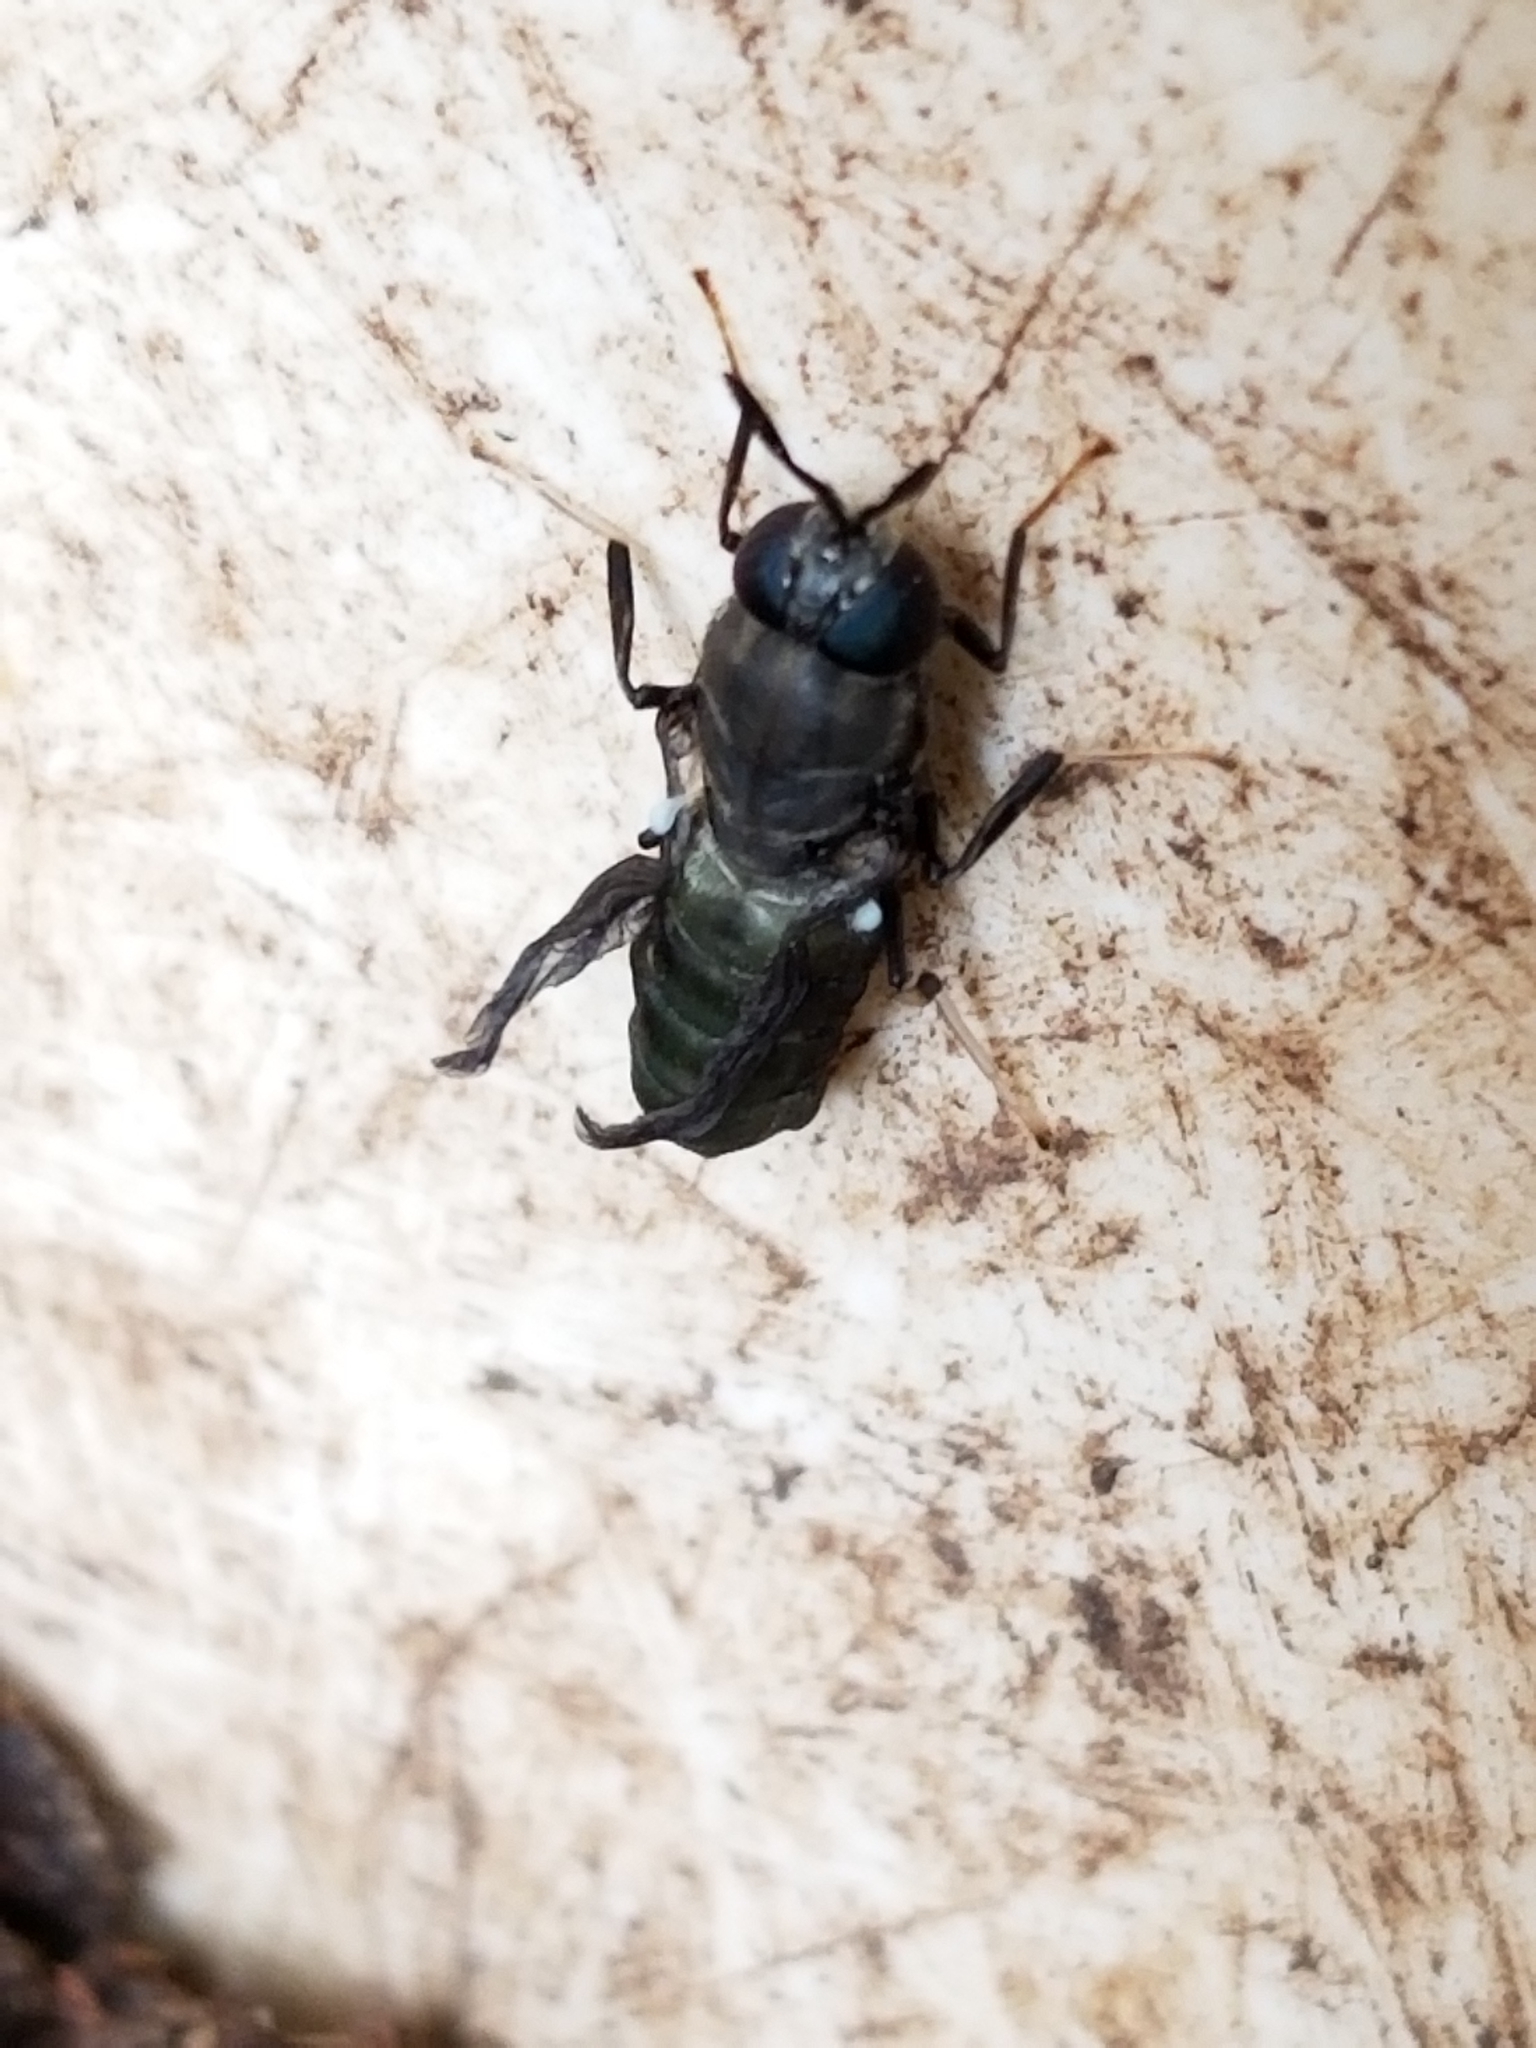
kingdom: Animalia
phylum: Arthropoda
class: Insecta
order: Diptera
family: Stratiomyidae
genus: Hermetia
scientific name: Hermetia illucens
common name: Black soldier fly
